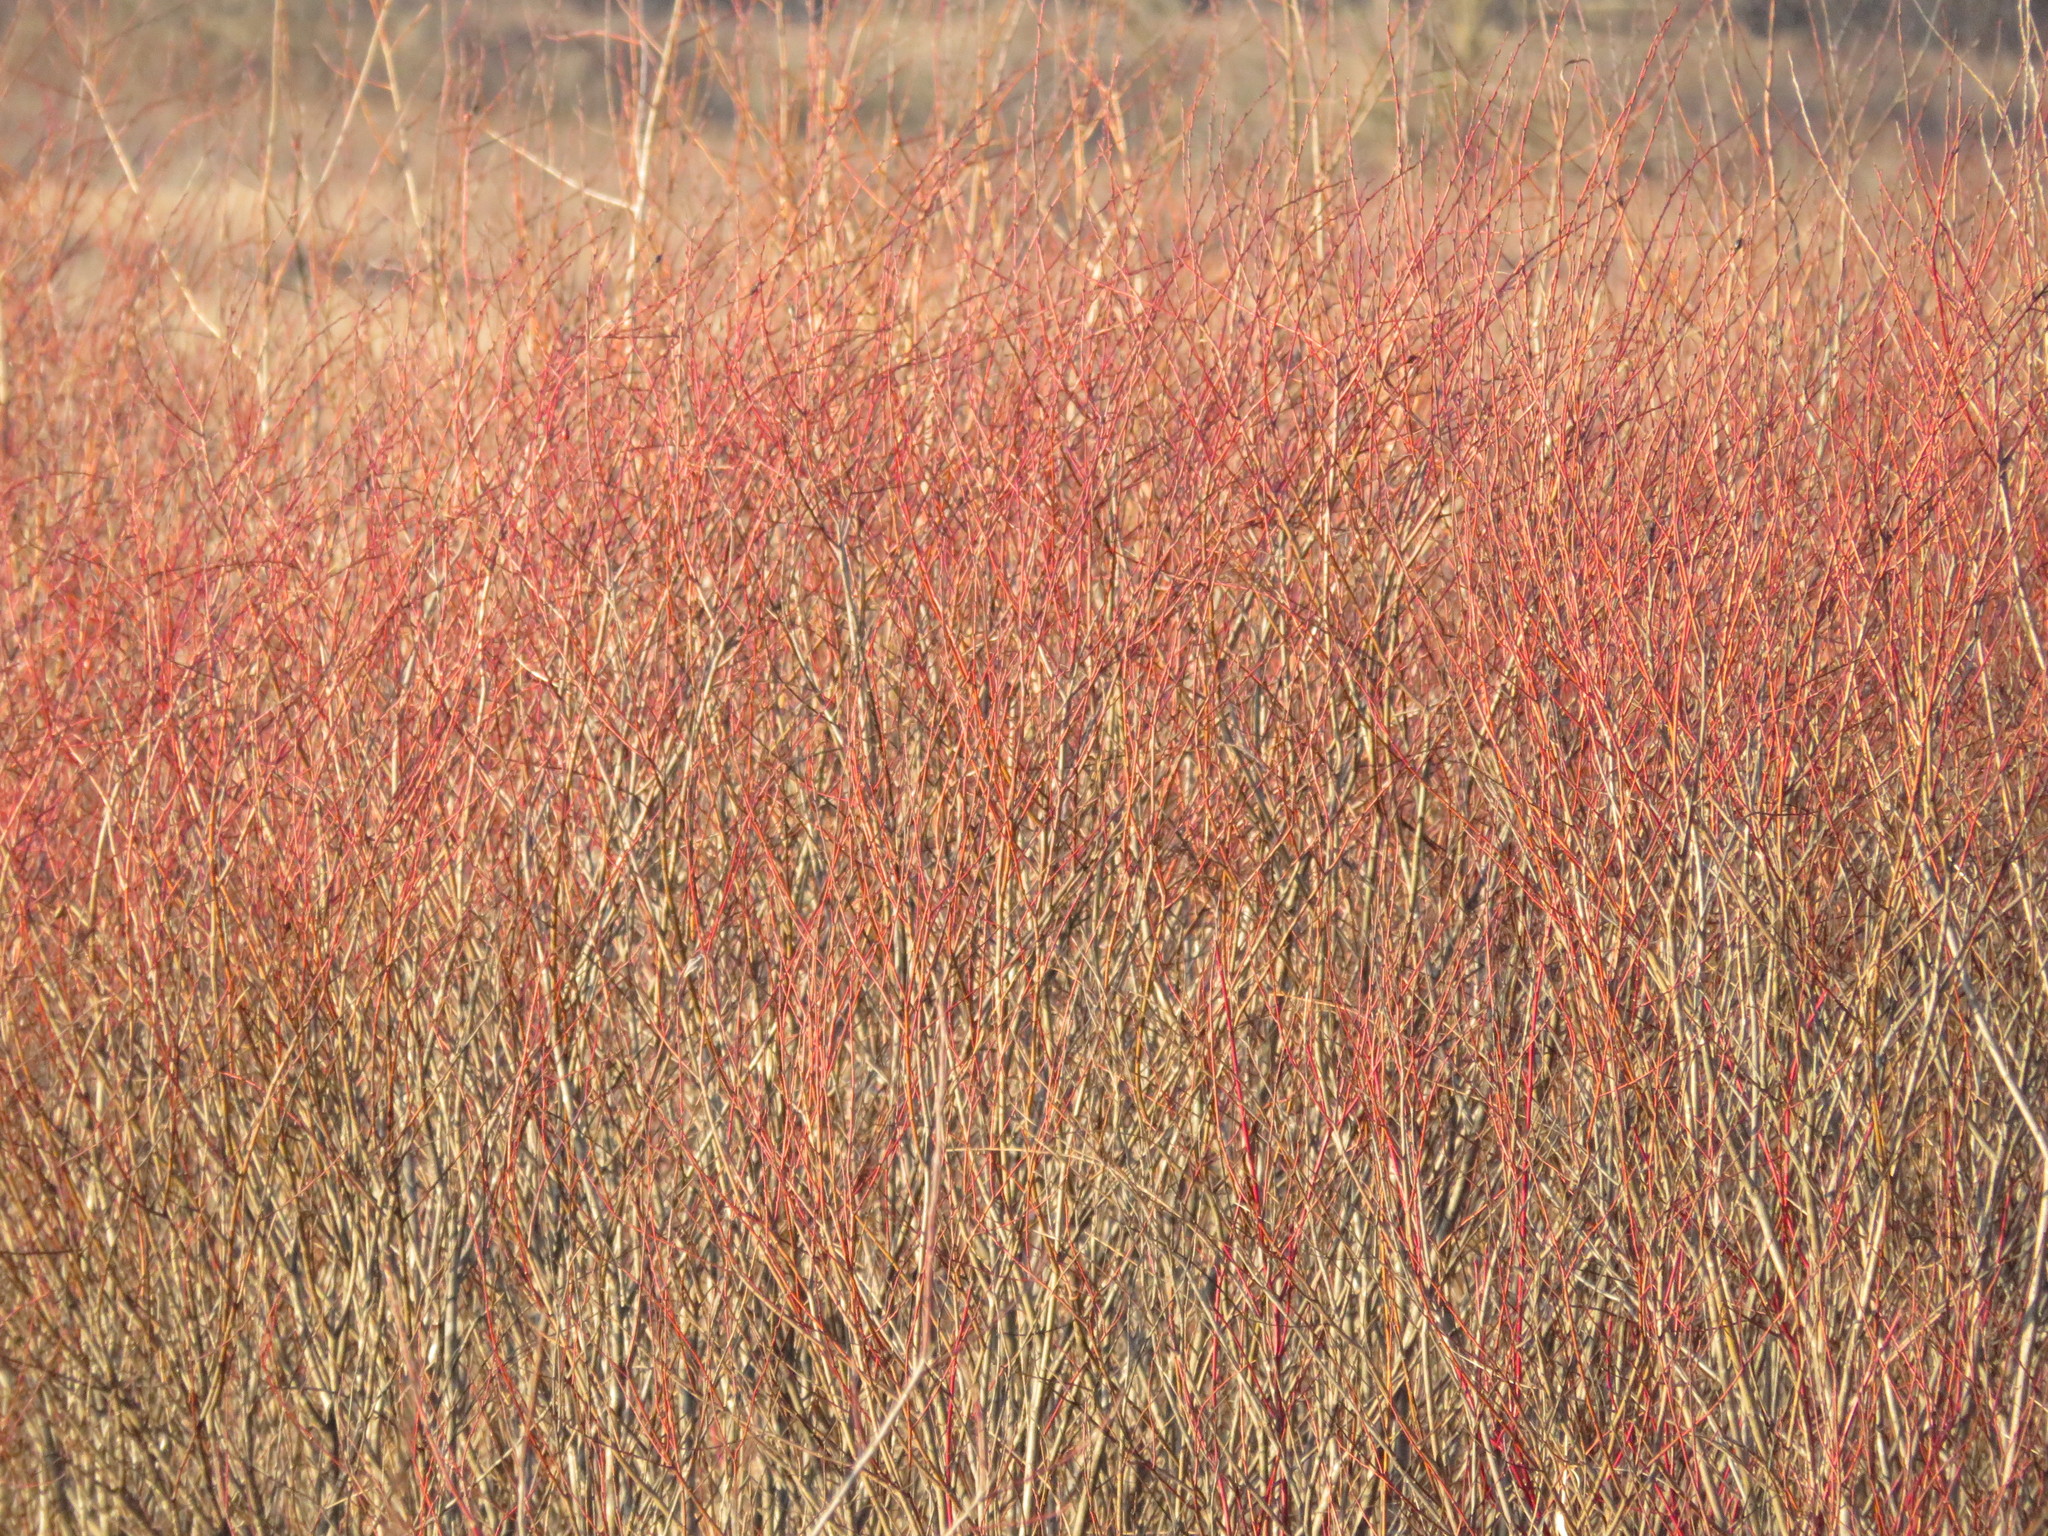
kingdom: Plantae
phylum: Tracheophyta
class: Magnoliopsida
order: Cornales
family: Cornaceae
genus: Cornus
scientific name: Cornus sericea
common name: Red-osier dogwood
